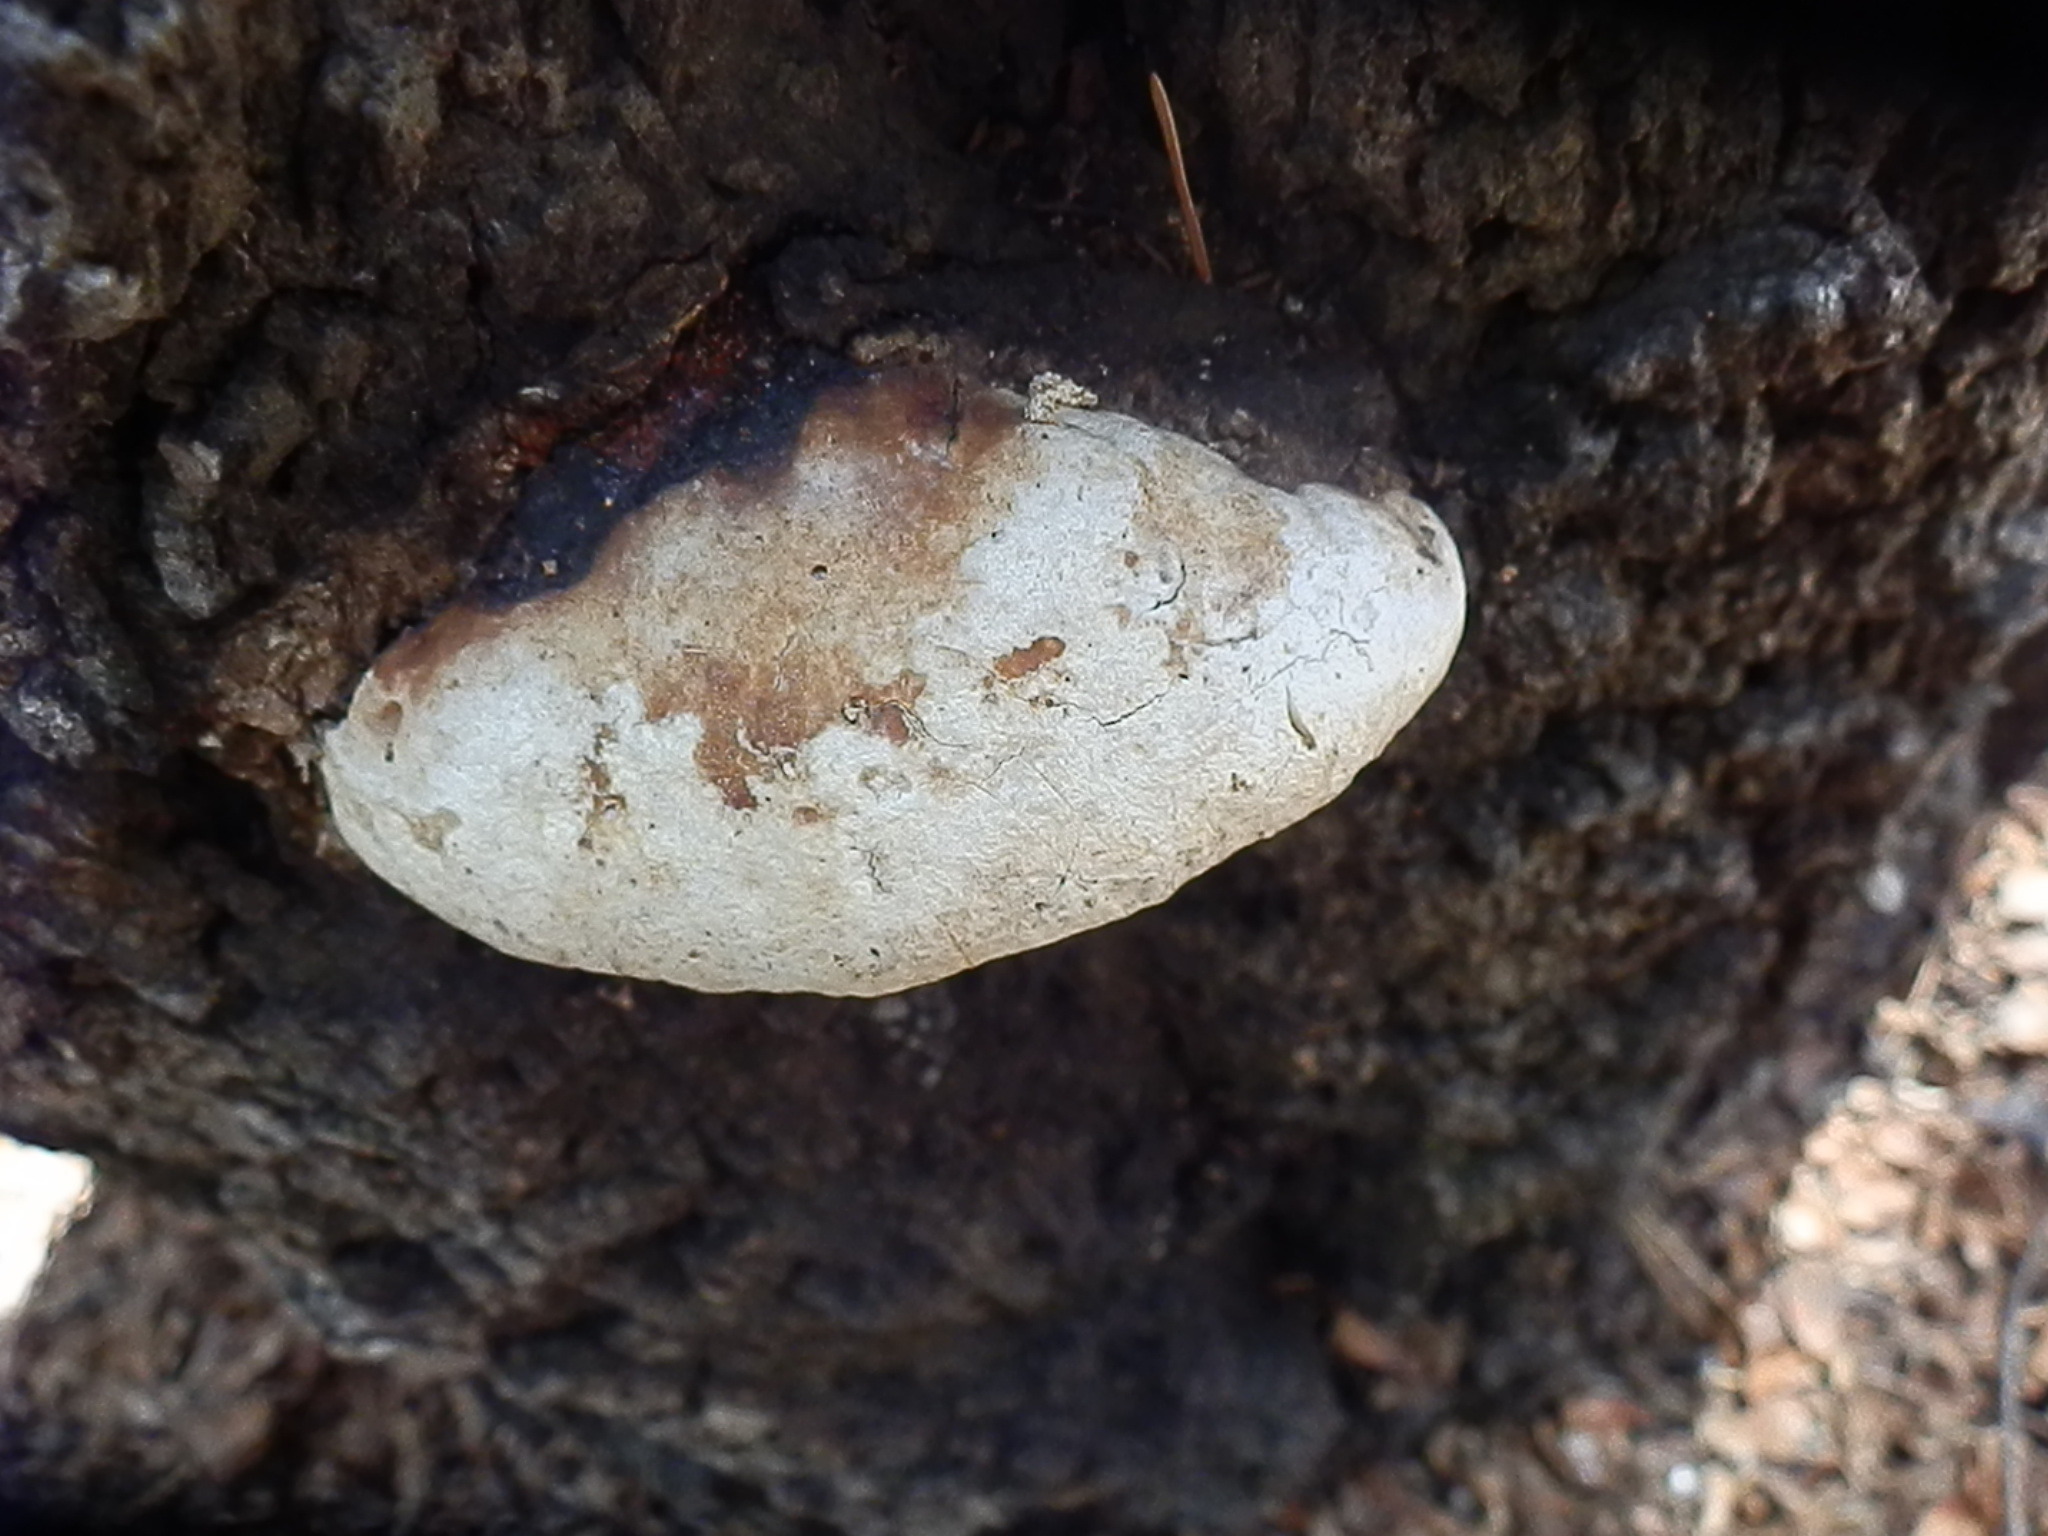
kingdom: Fungi
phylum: Basidiomycota
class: Agaricomycetes
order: Polyporales
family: Fomitopsidaceae
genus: Fomitopsis
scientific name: Fomitopsis schrenkii
